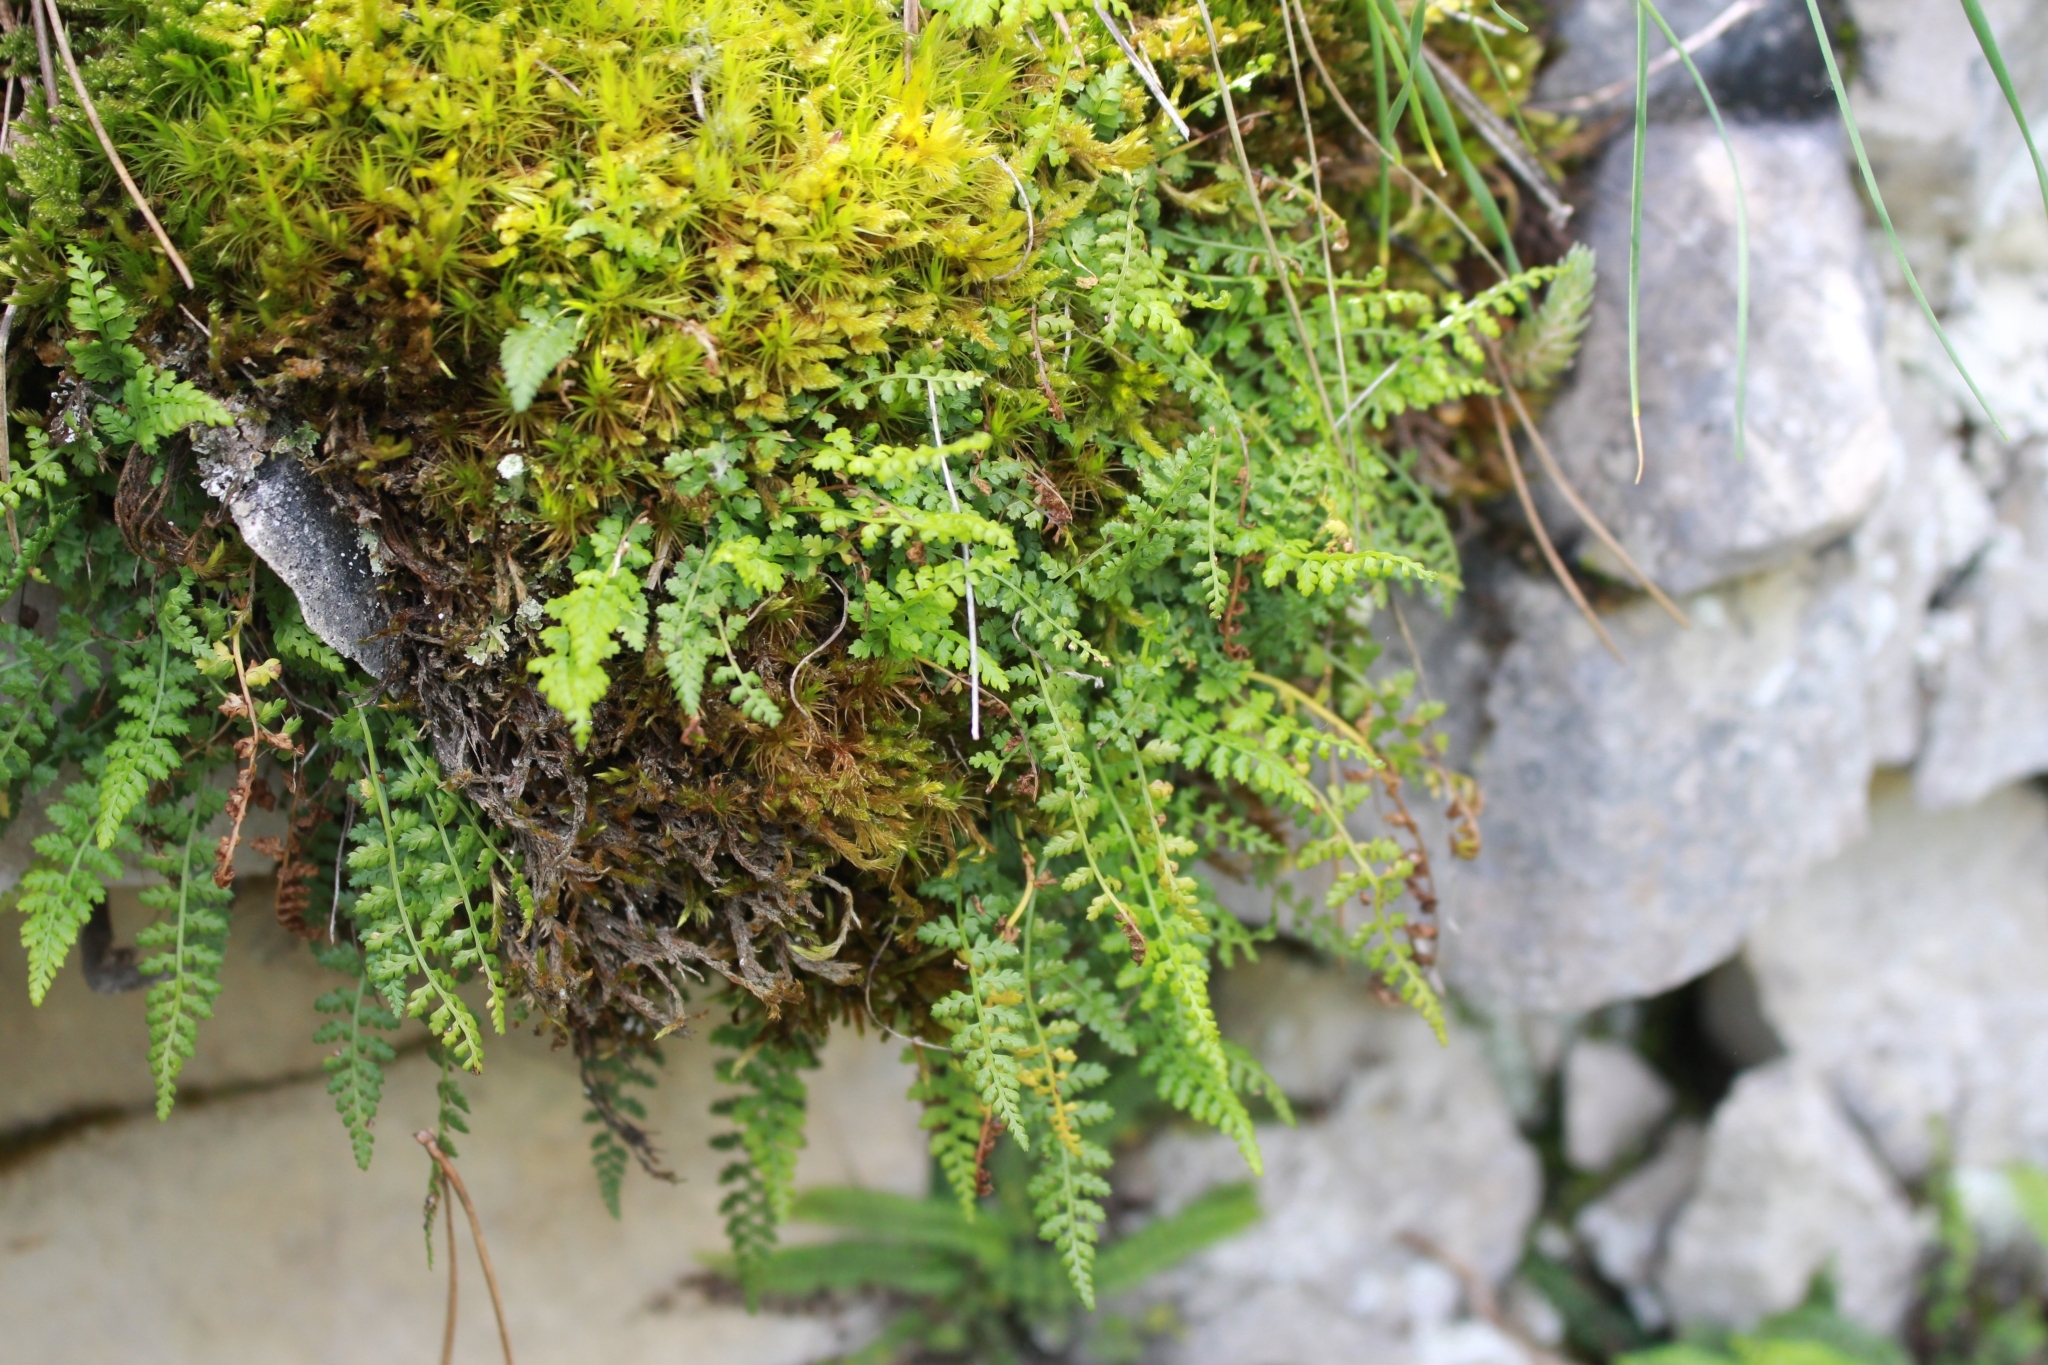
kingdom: Plantae
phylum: Tracheophyta
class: Polypodiopsida
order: Polypodiales
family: Aspleniaceae
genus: Asplenium
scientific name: Asplenium fontanum
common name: Fountain spleenwort
